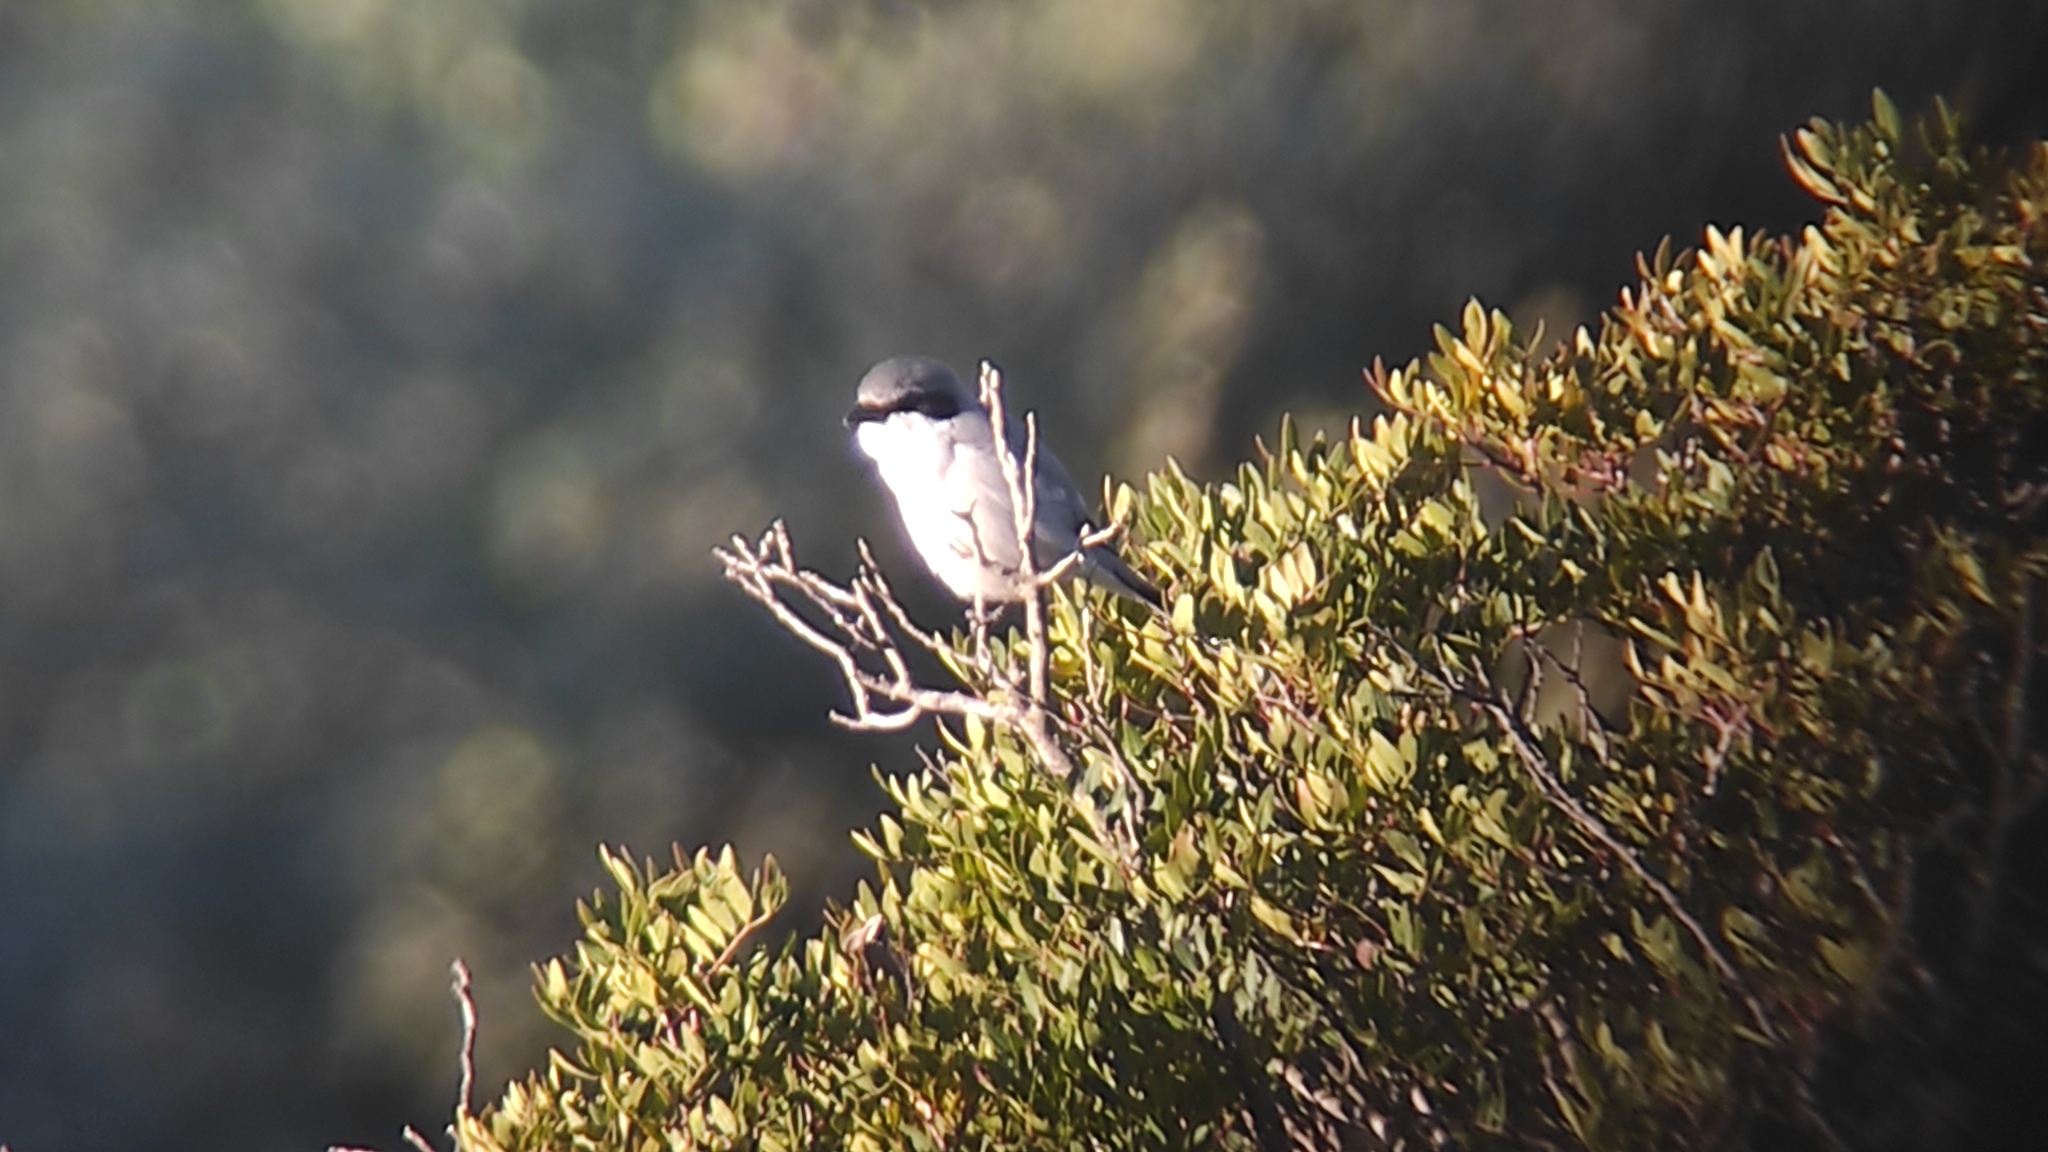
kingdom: Animalia
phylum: Chordata
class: Aves
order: Passeriformes
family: Laniidae
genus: Lanius
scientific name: Lanius meridionalis
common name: Iberian grey shrike
